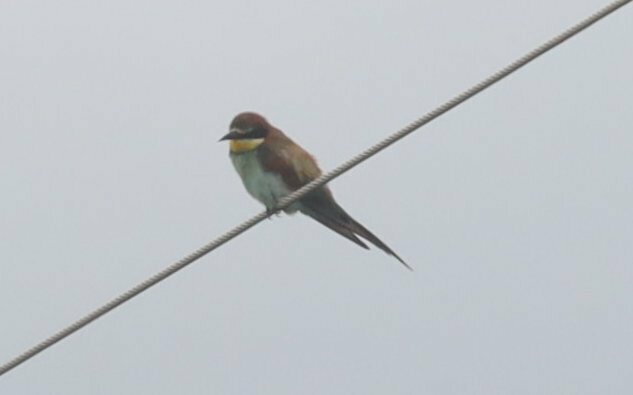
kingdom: Animalia
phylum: Chordata
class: Aves
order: Coraciiformes
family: Meropidae
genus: Merops
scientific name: Merops apiaster
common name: European bee-eater
